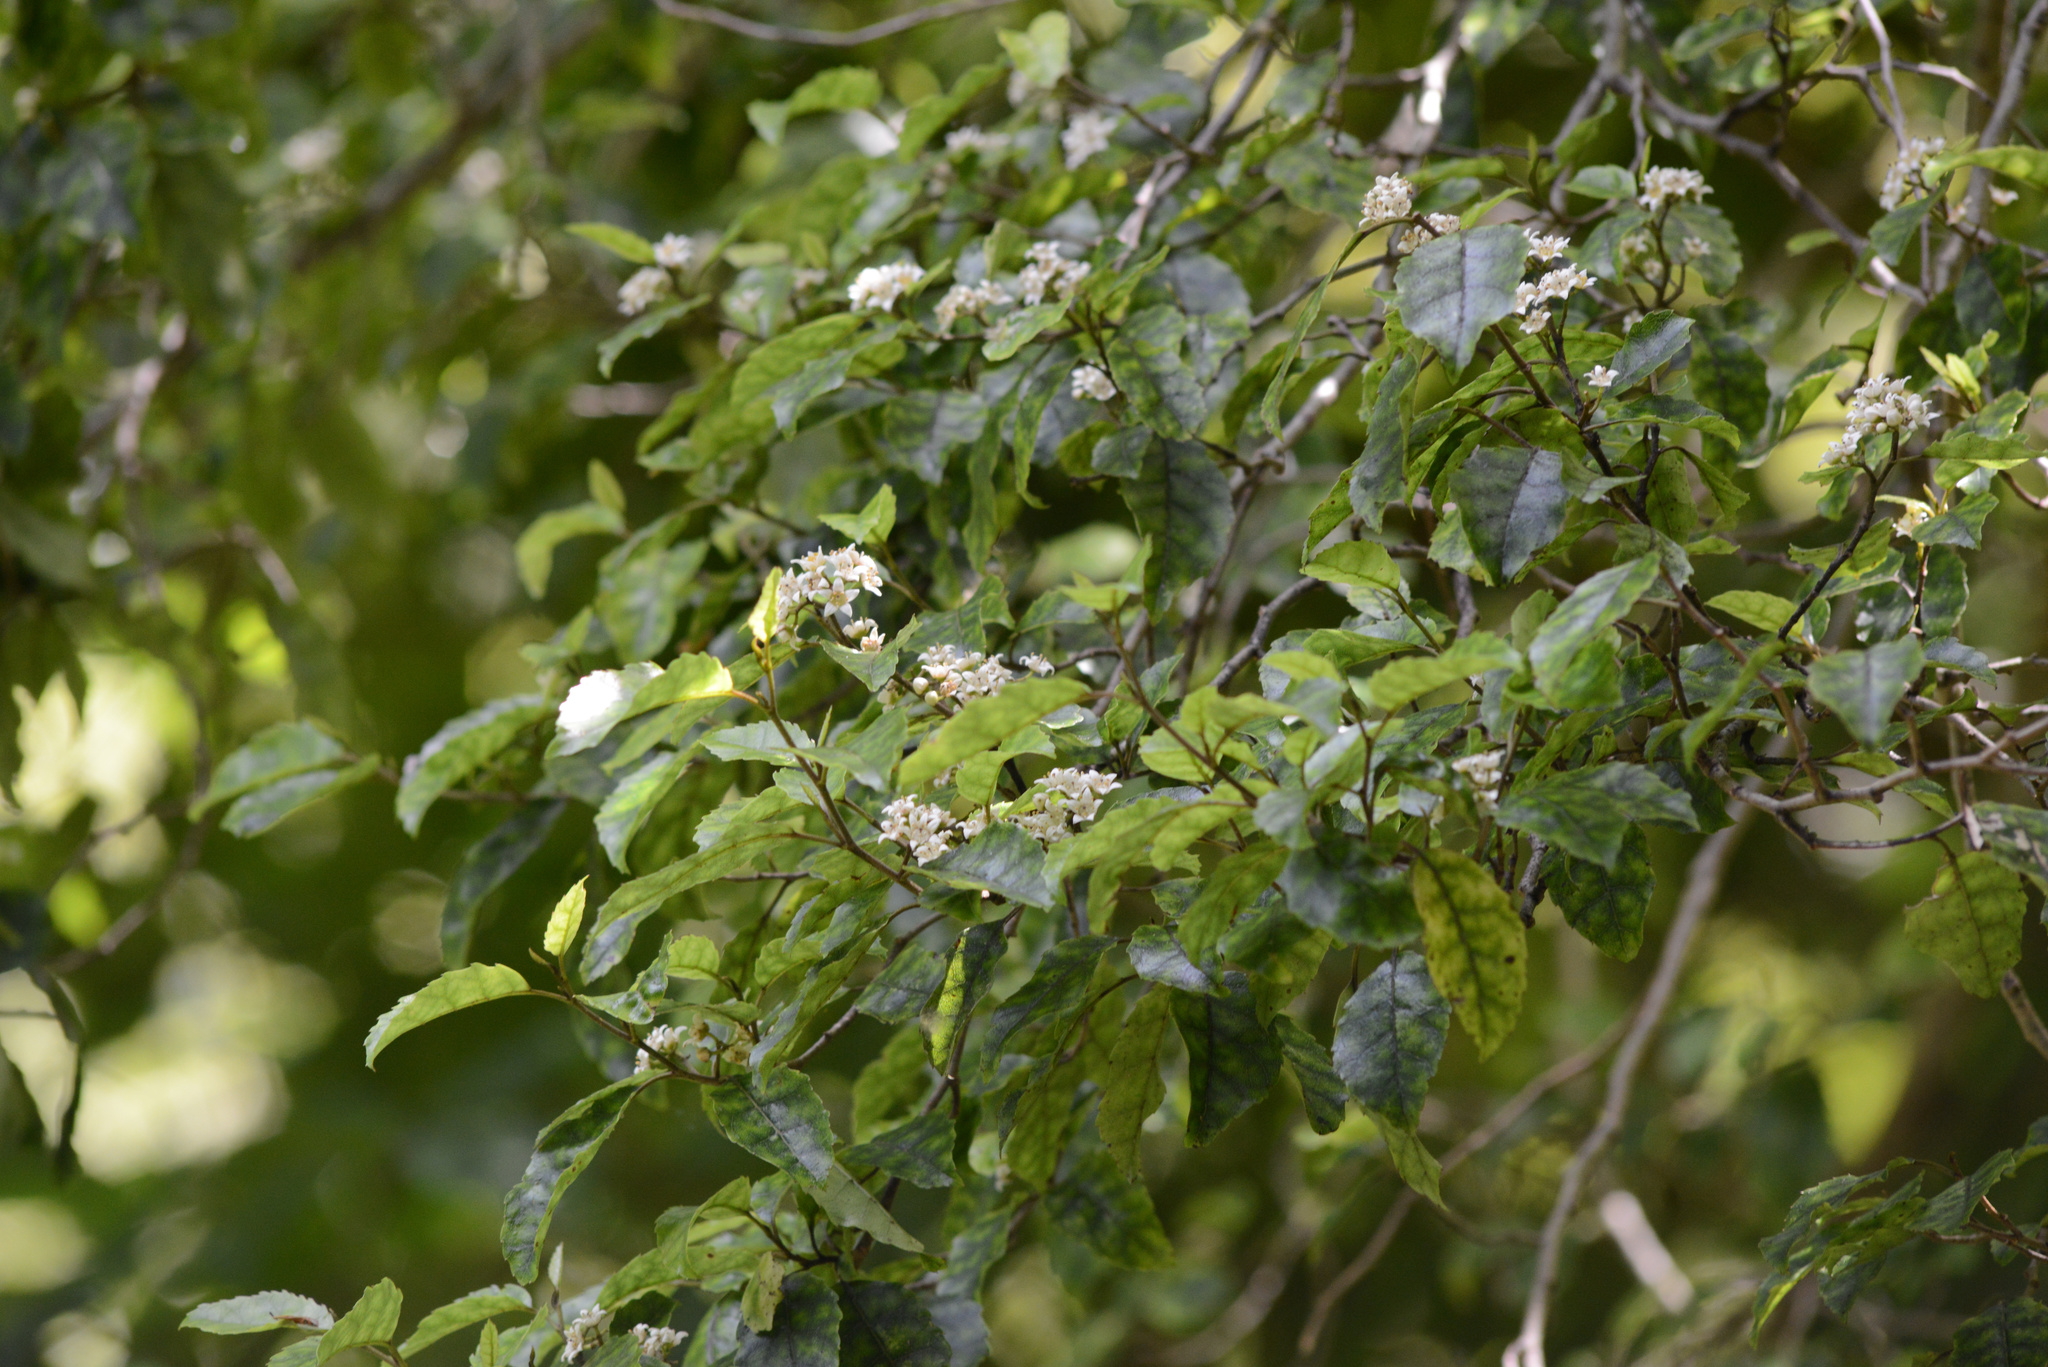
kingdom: Plantae
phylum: Tracheophyta
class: Magnoliopsida
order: Asterales
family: Rousseaceae
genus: Carpodetus
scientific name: Carpodetus serratus
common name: White mapau
